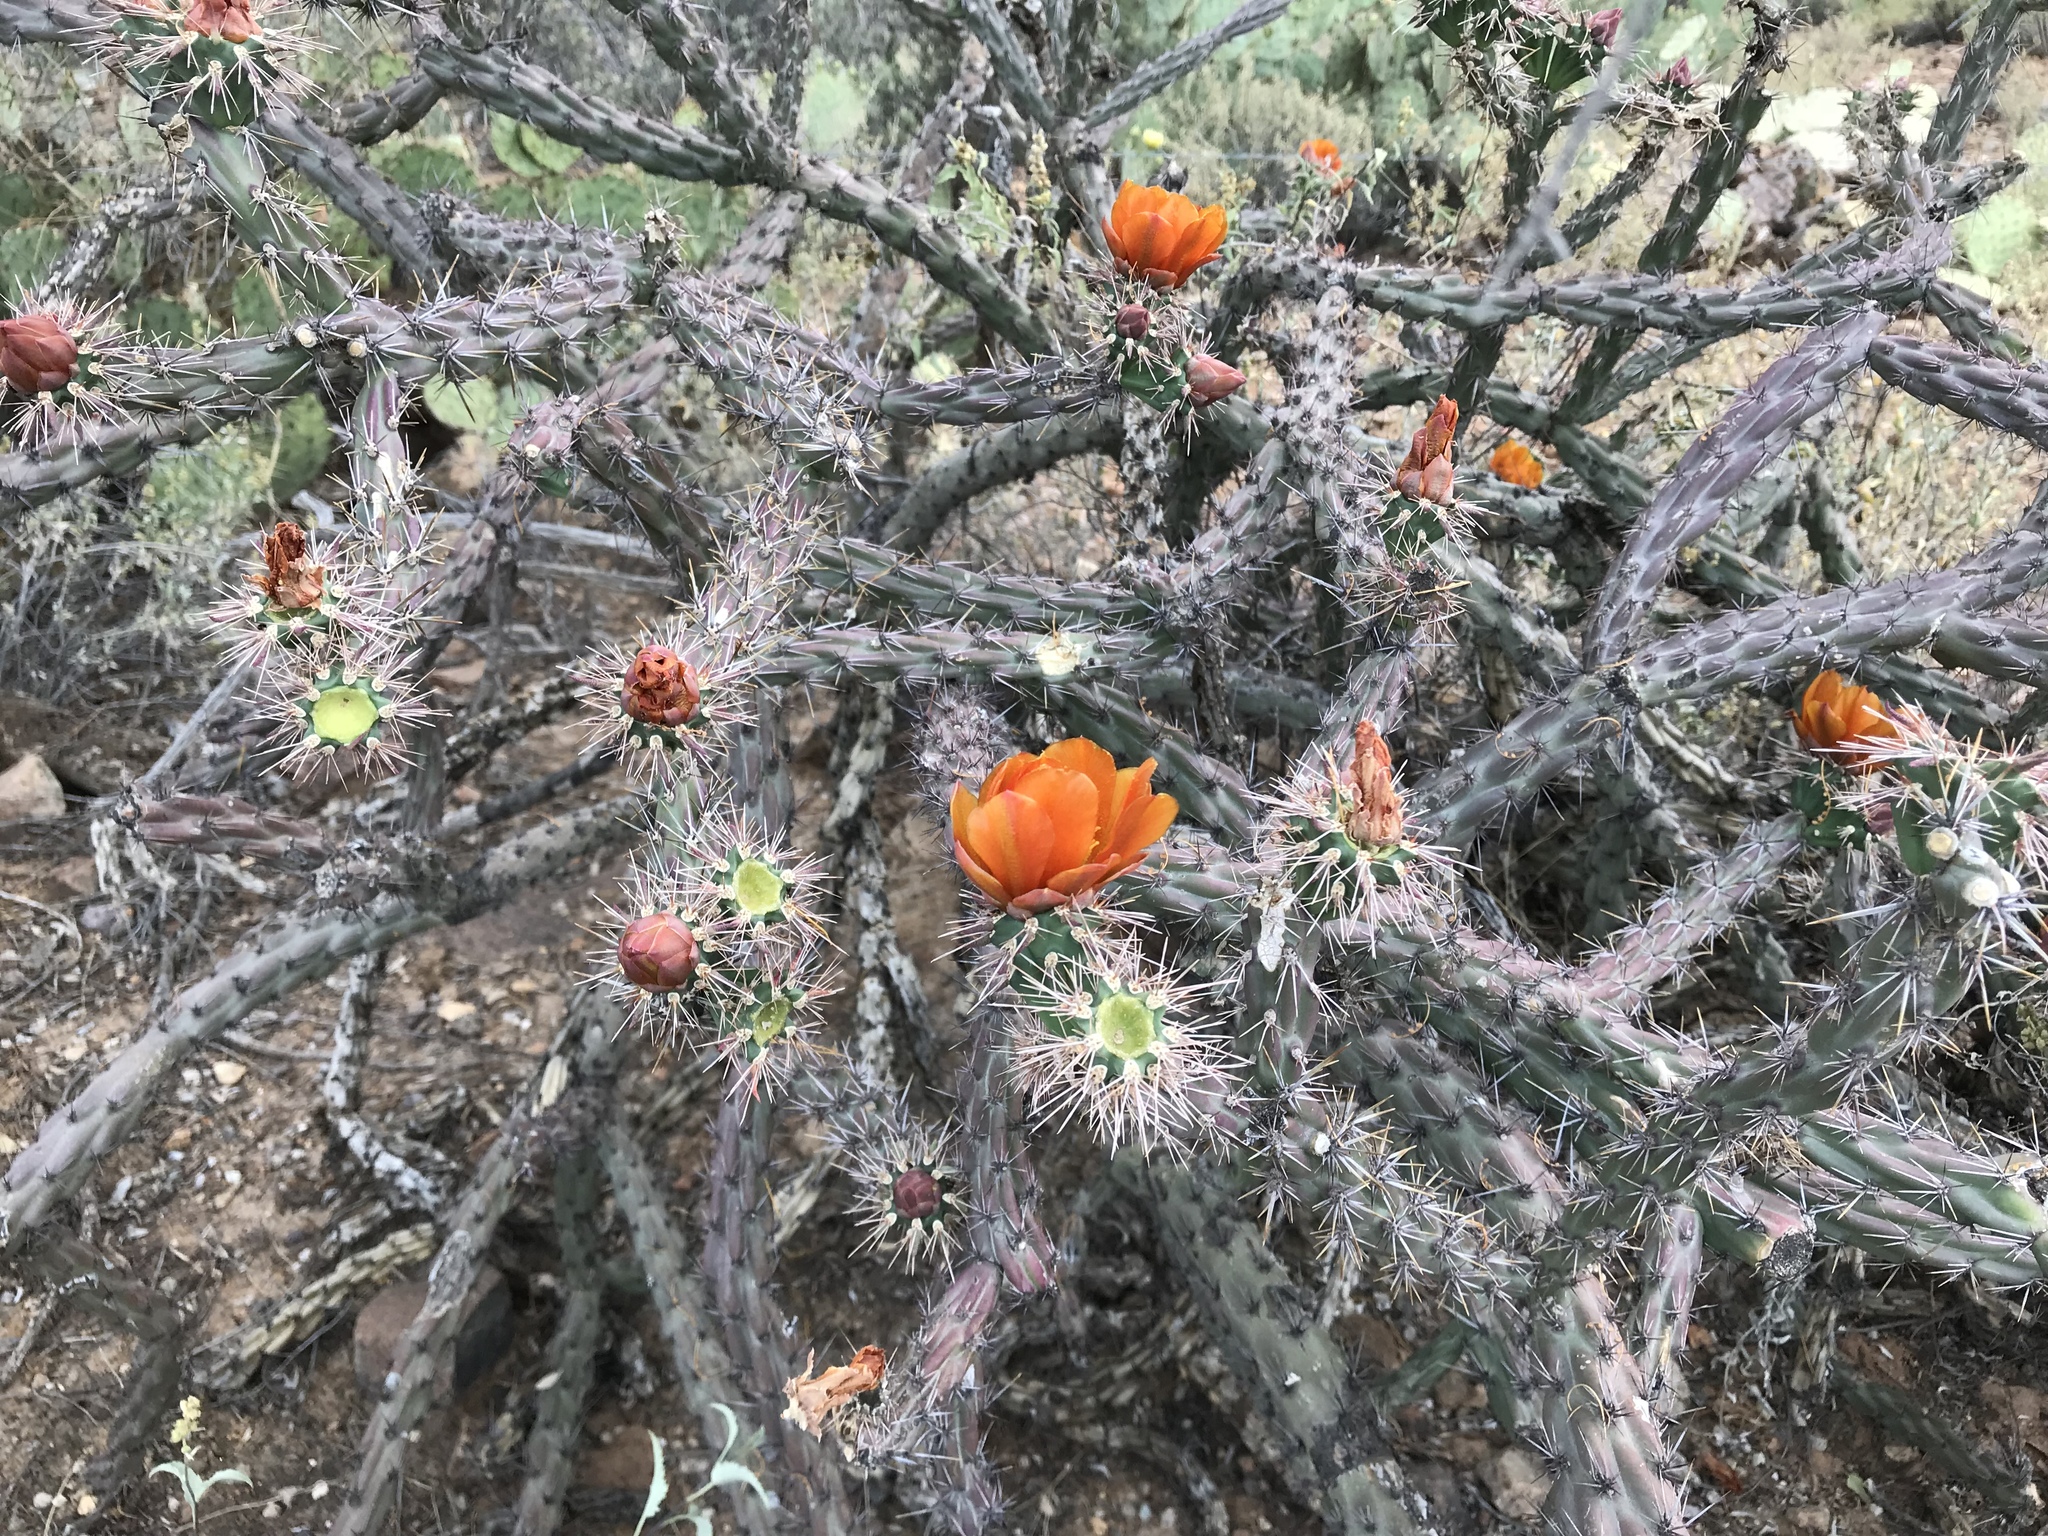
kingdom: Plantae
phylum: Tracheophyta
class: Magnoliopsida
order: Caryophyllales
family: Cactaceae
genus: Cylindropuntia
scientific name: Cylindropuntia thurberi
